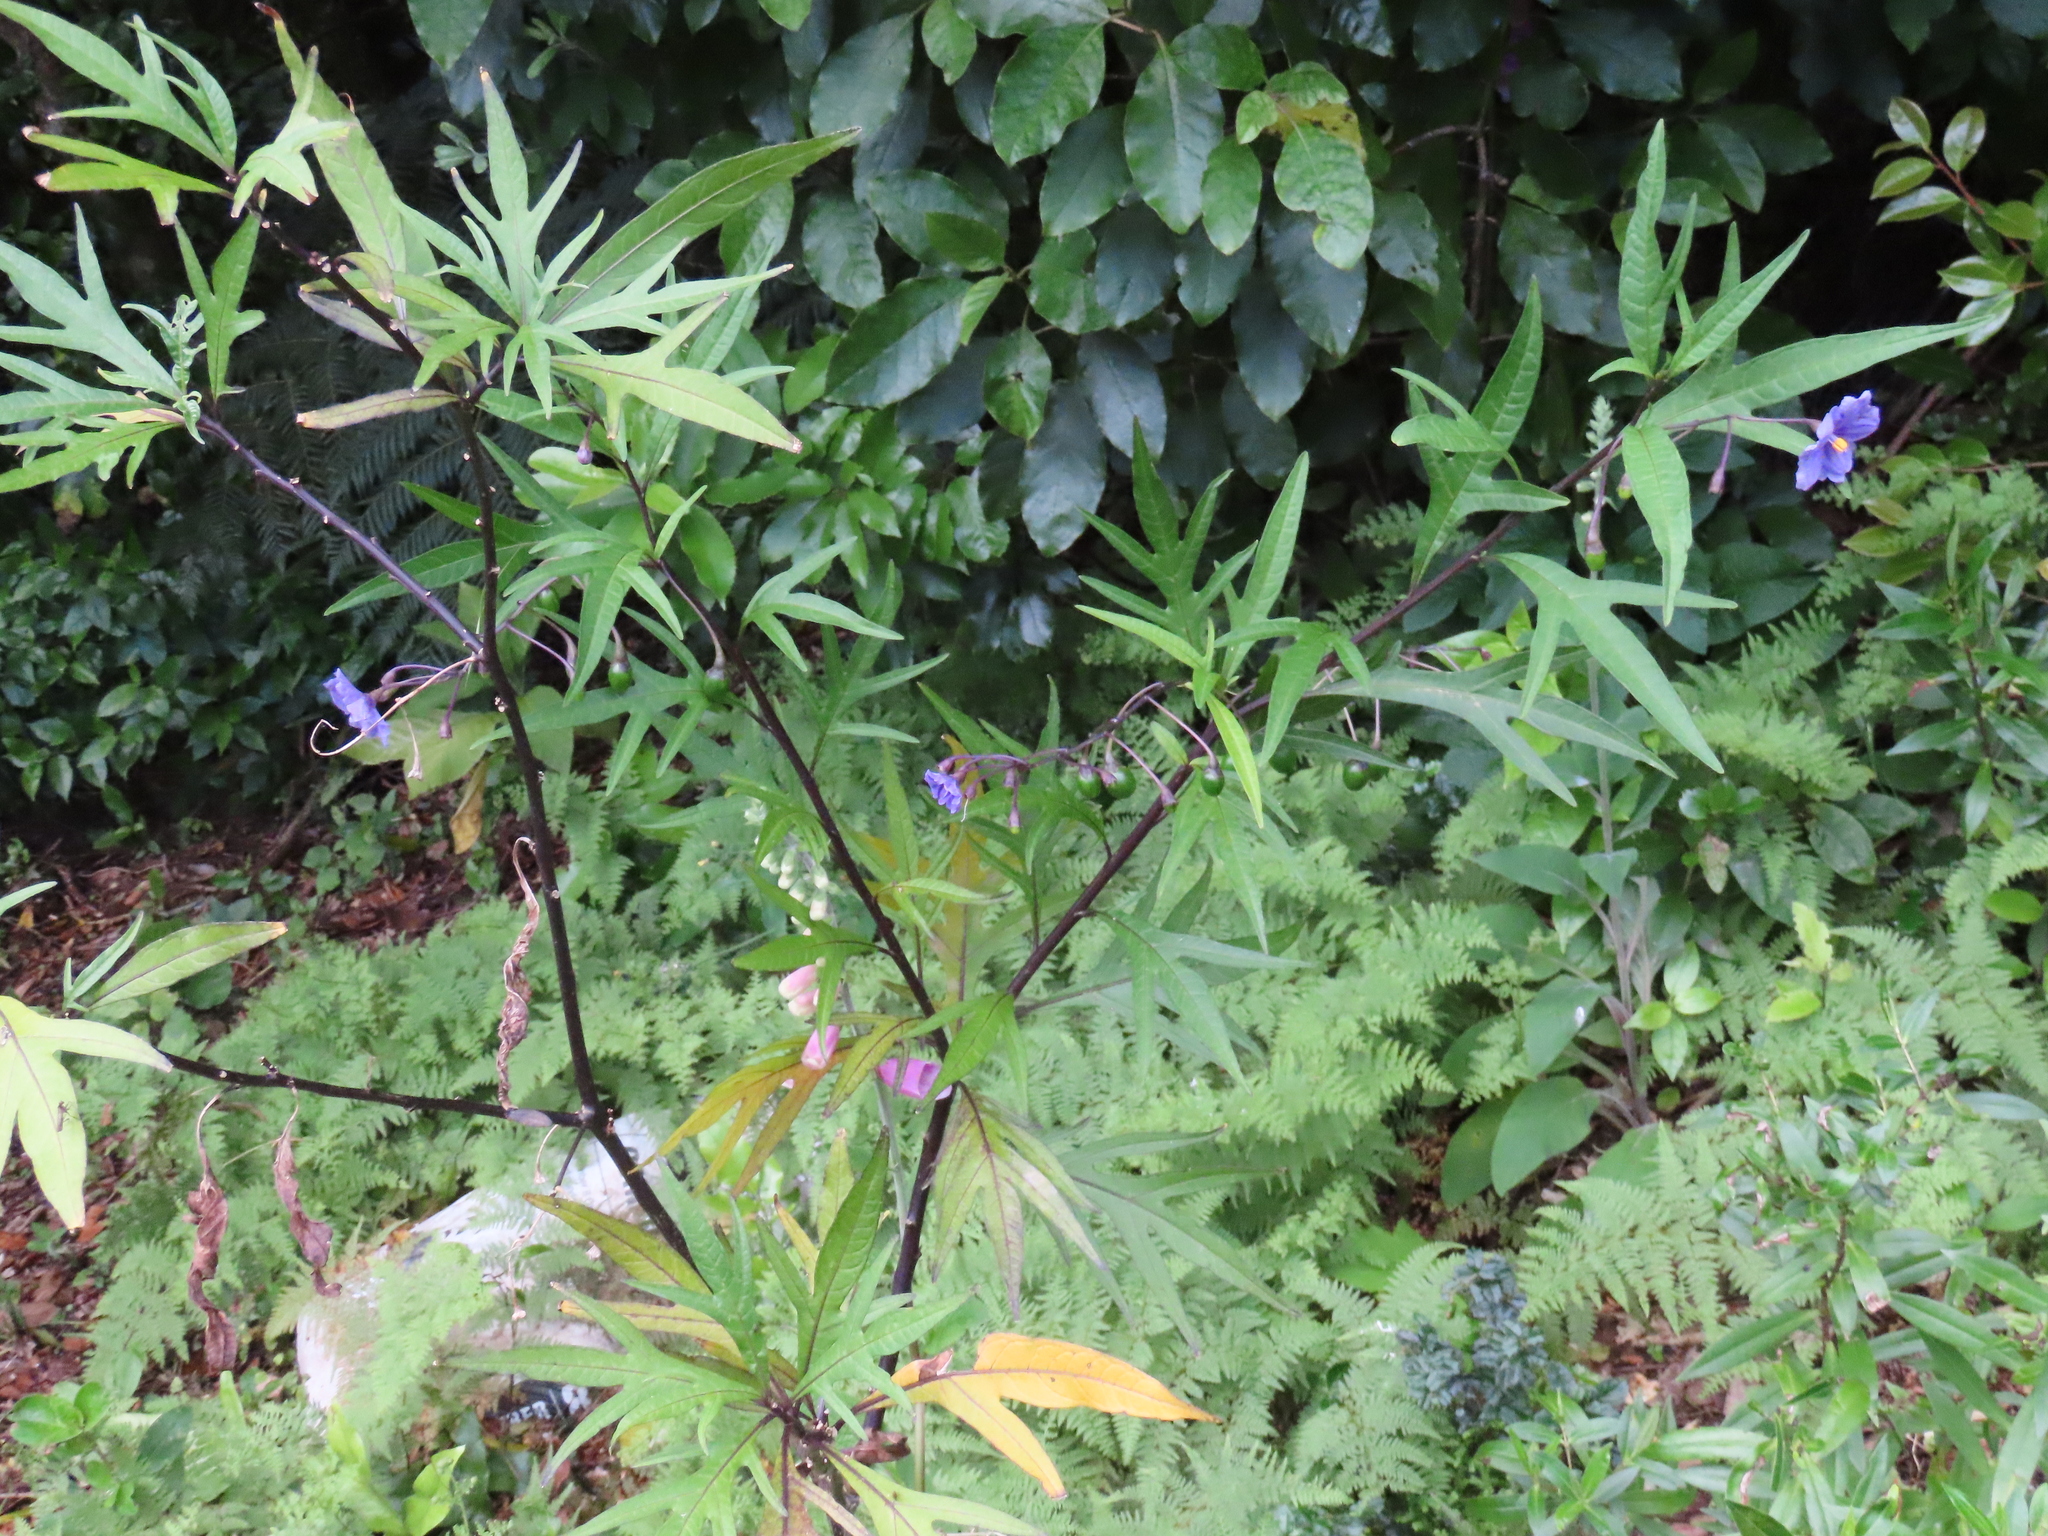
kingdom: Plantae
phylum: Tracheophyta
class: Magnoliopsida
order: Solanales
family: Solanaceae
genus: Solanum
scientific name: Solanum laciniatum
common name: Kangaroo-apple
